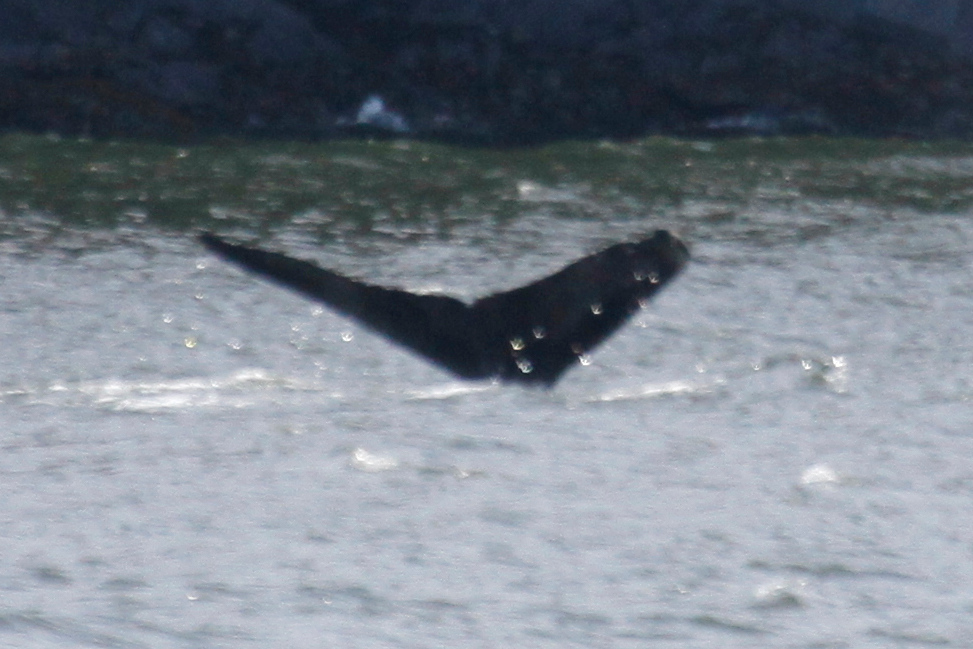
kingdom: Animalia
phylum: Chordata
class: Mammalia
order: Cetacea
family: Balaenopteridae
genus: Megaptera
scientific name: Megaptera novaeangliae
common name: Humpback whale
